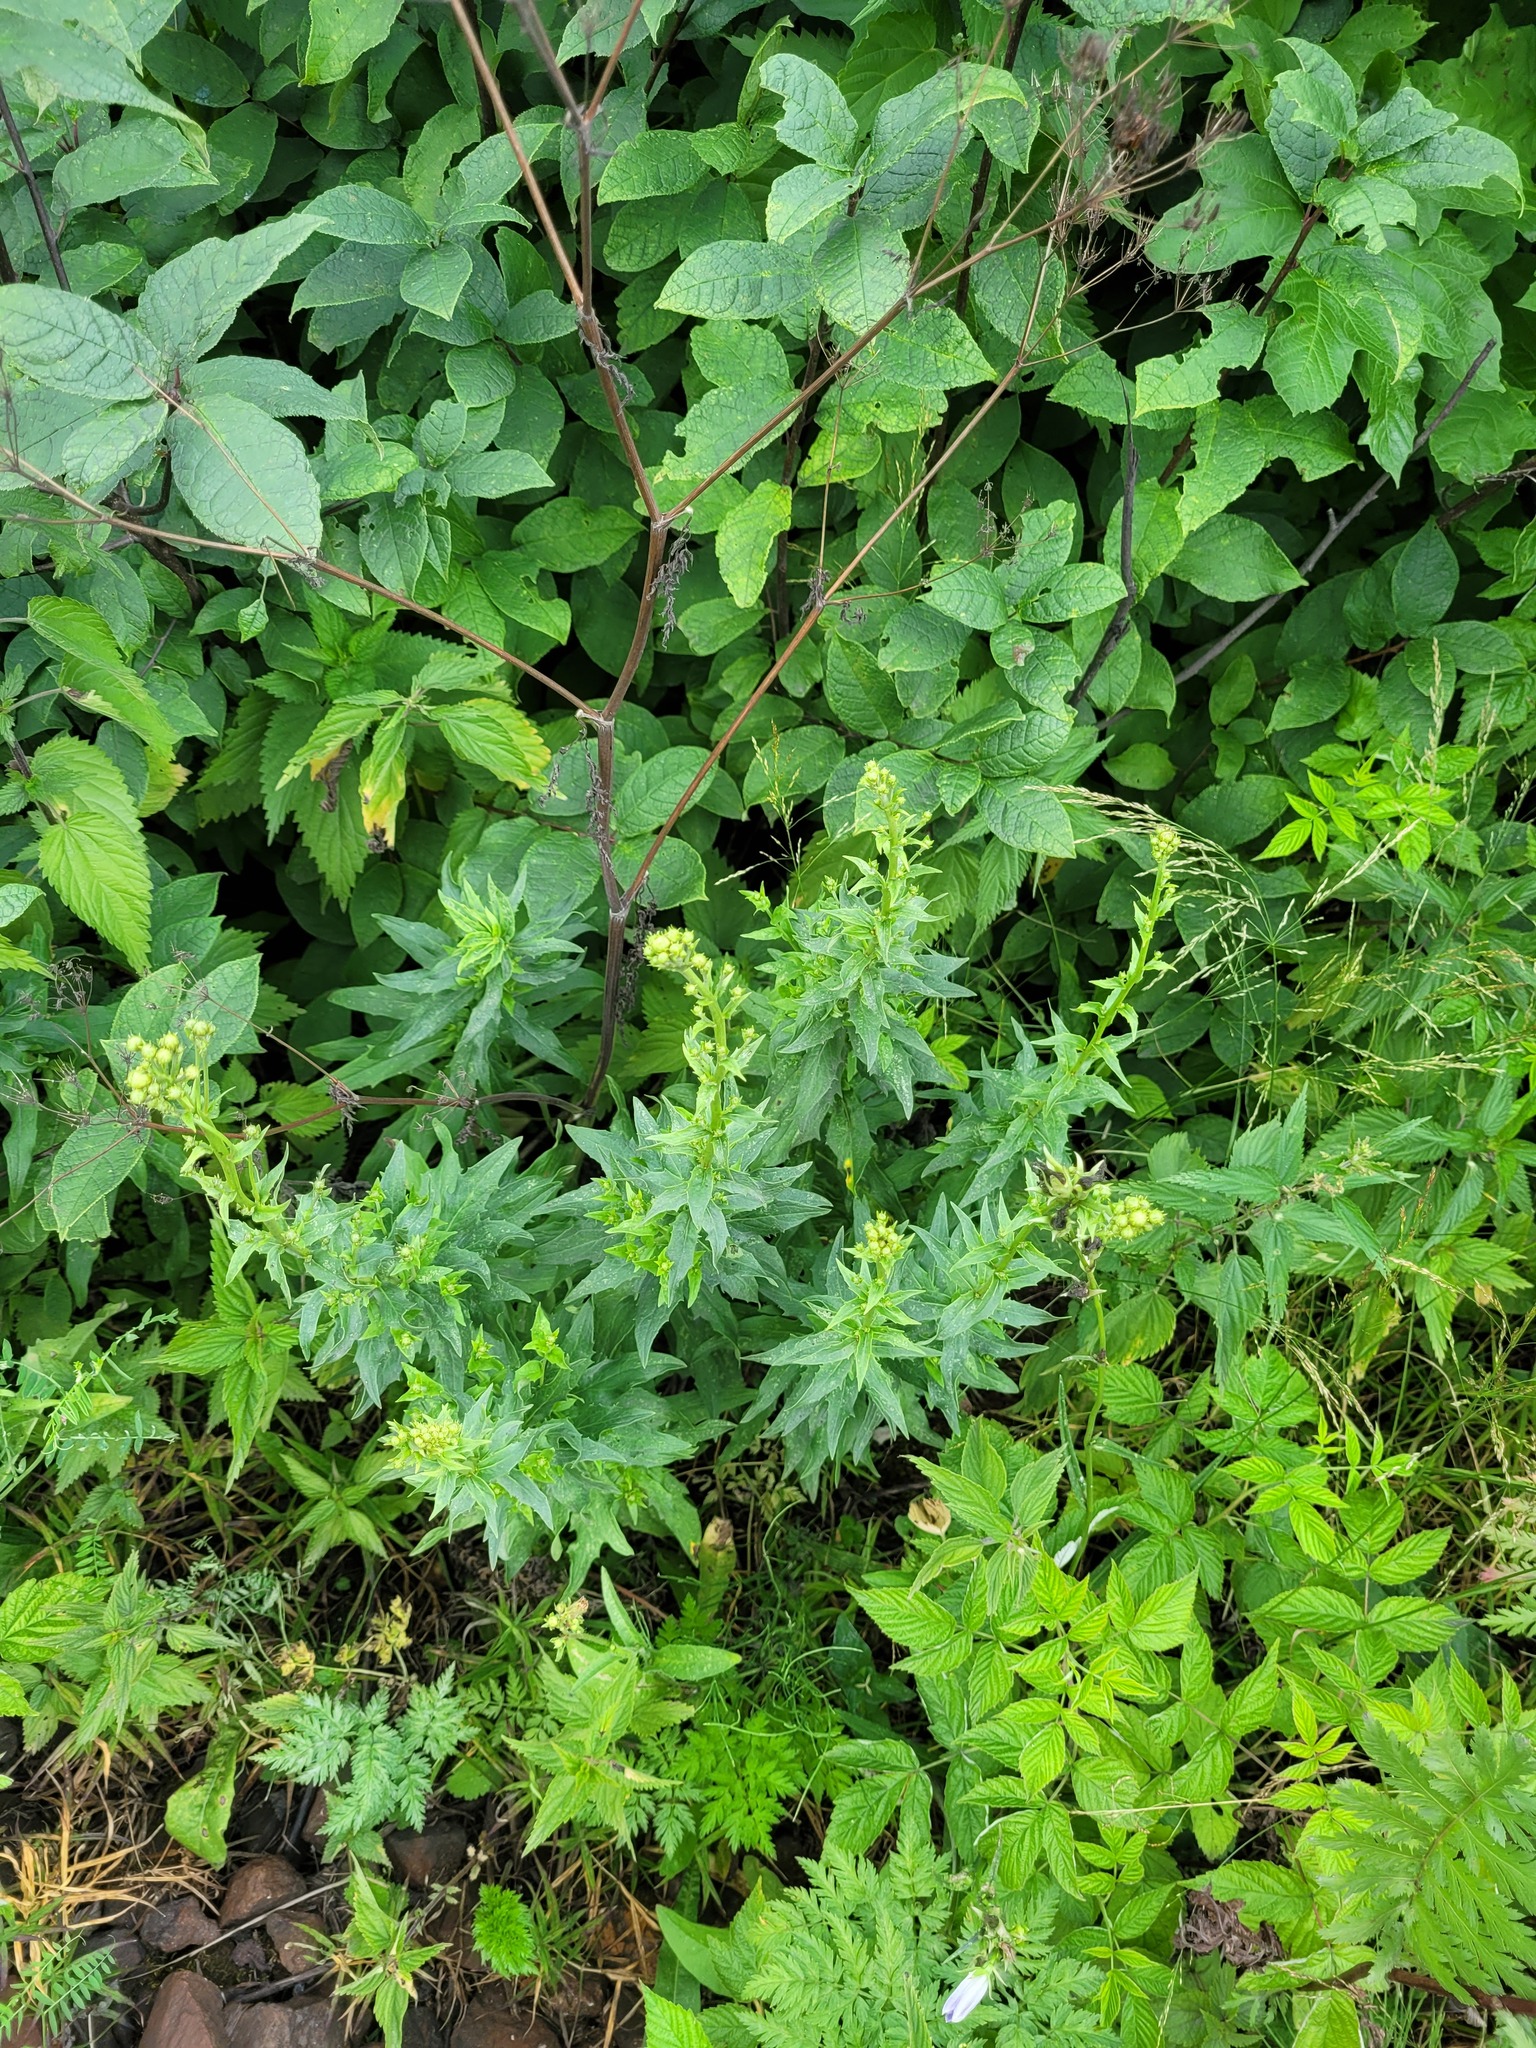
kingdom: Plantae
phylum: Tracheophyta
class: Magnoliopsida
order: Asterales
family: Asteraceae
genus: Hieracium
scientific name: Hieracium umbellatum
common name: Northern hawkweed
